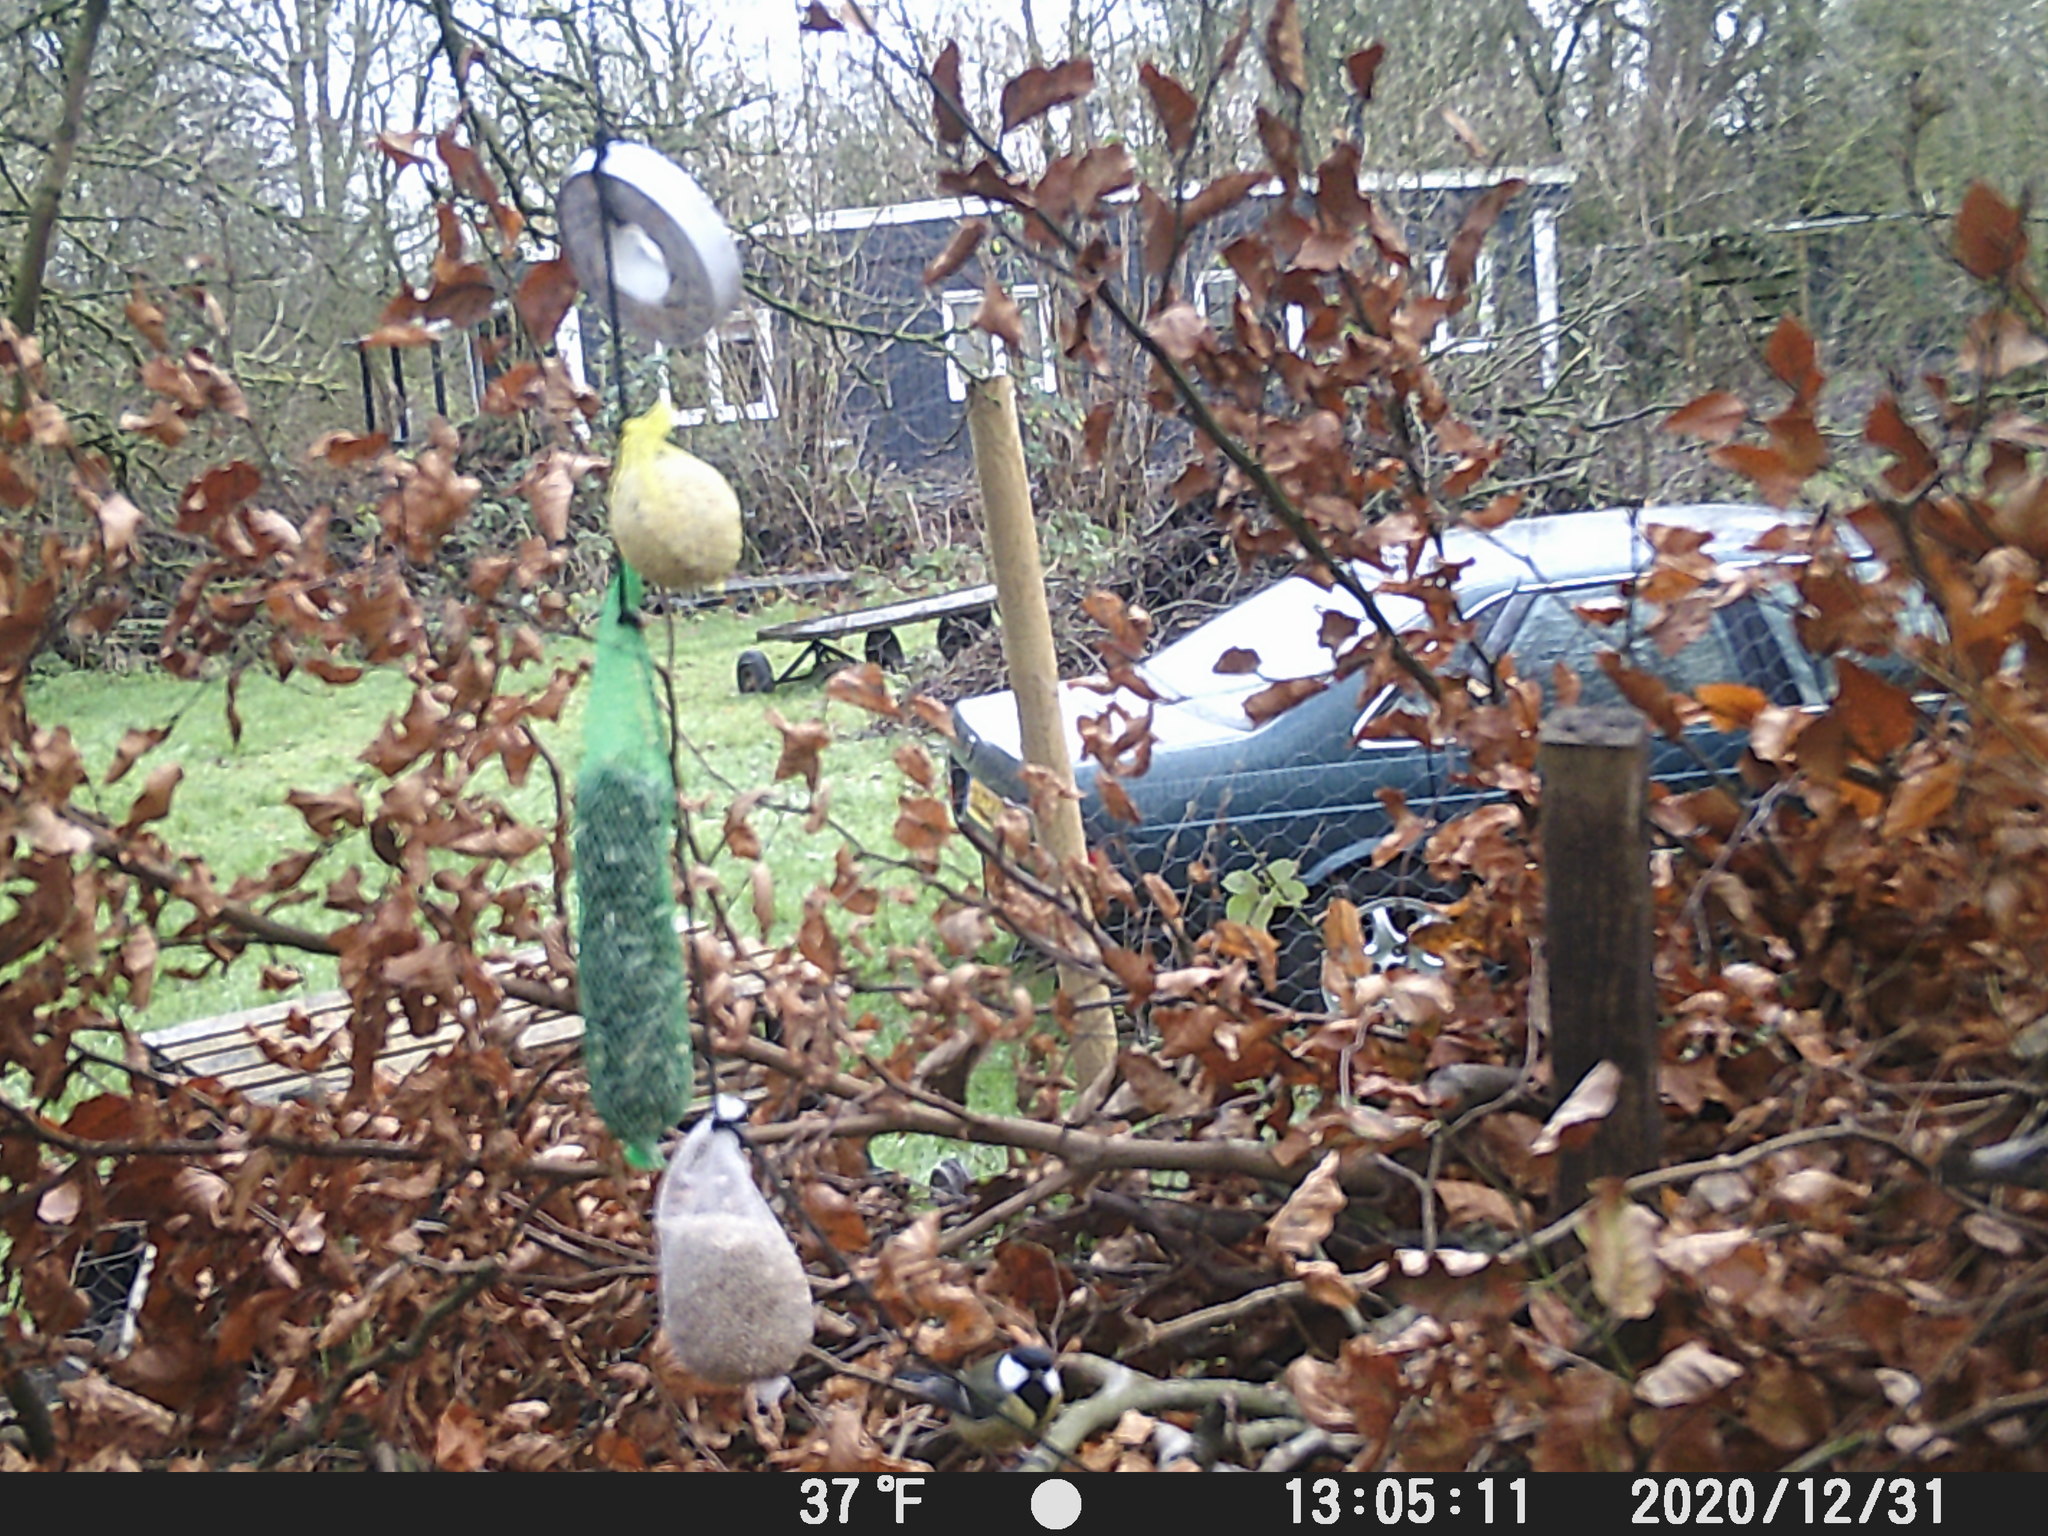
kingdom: Animalia
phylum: Chordata
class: Aves
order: Passeriformes
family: Paridae
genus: Parus
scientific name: Parus major
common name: Great tit
